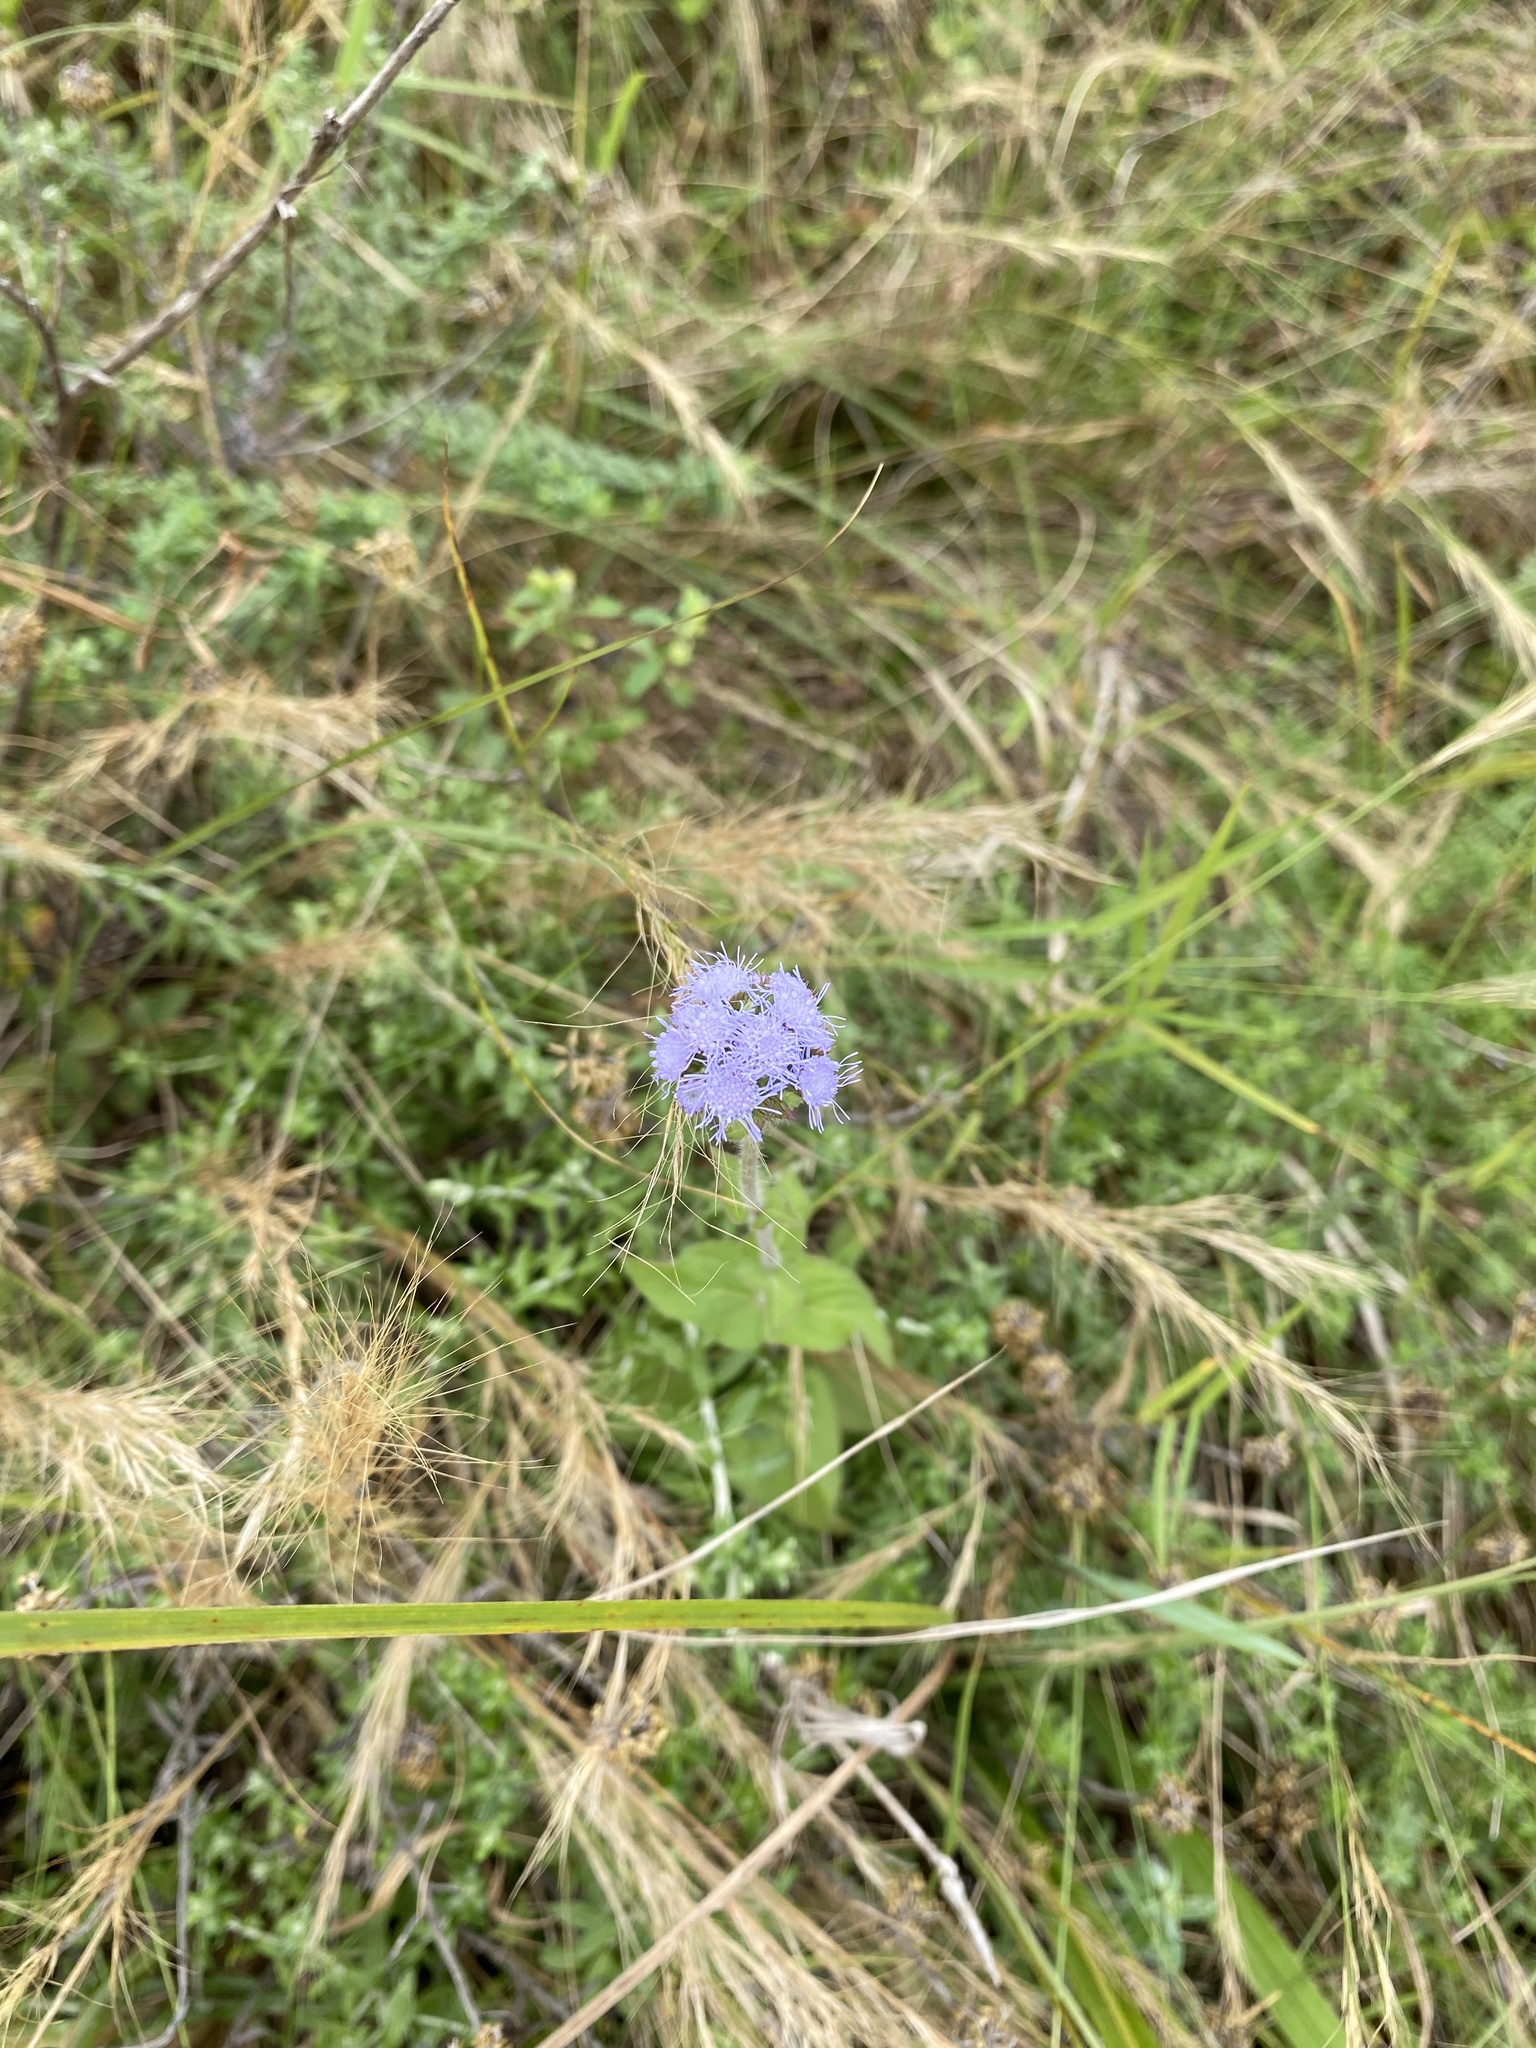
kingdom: Plantae
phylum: Tracheophyta
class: Magnoliopsida
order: Asterales
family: Asteraceae
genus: Ageratum
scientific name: Ageratum houstonianum
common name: Bluemink
